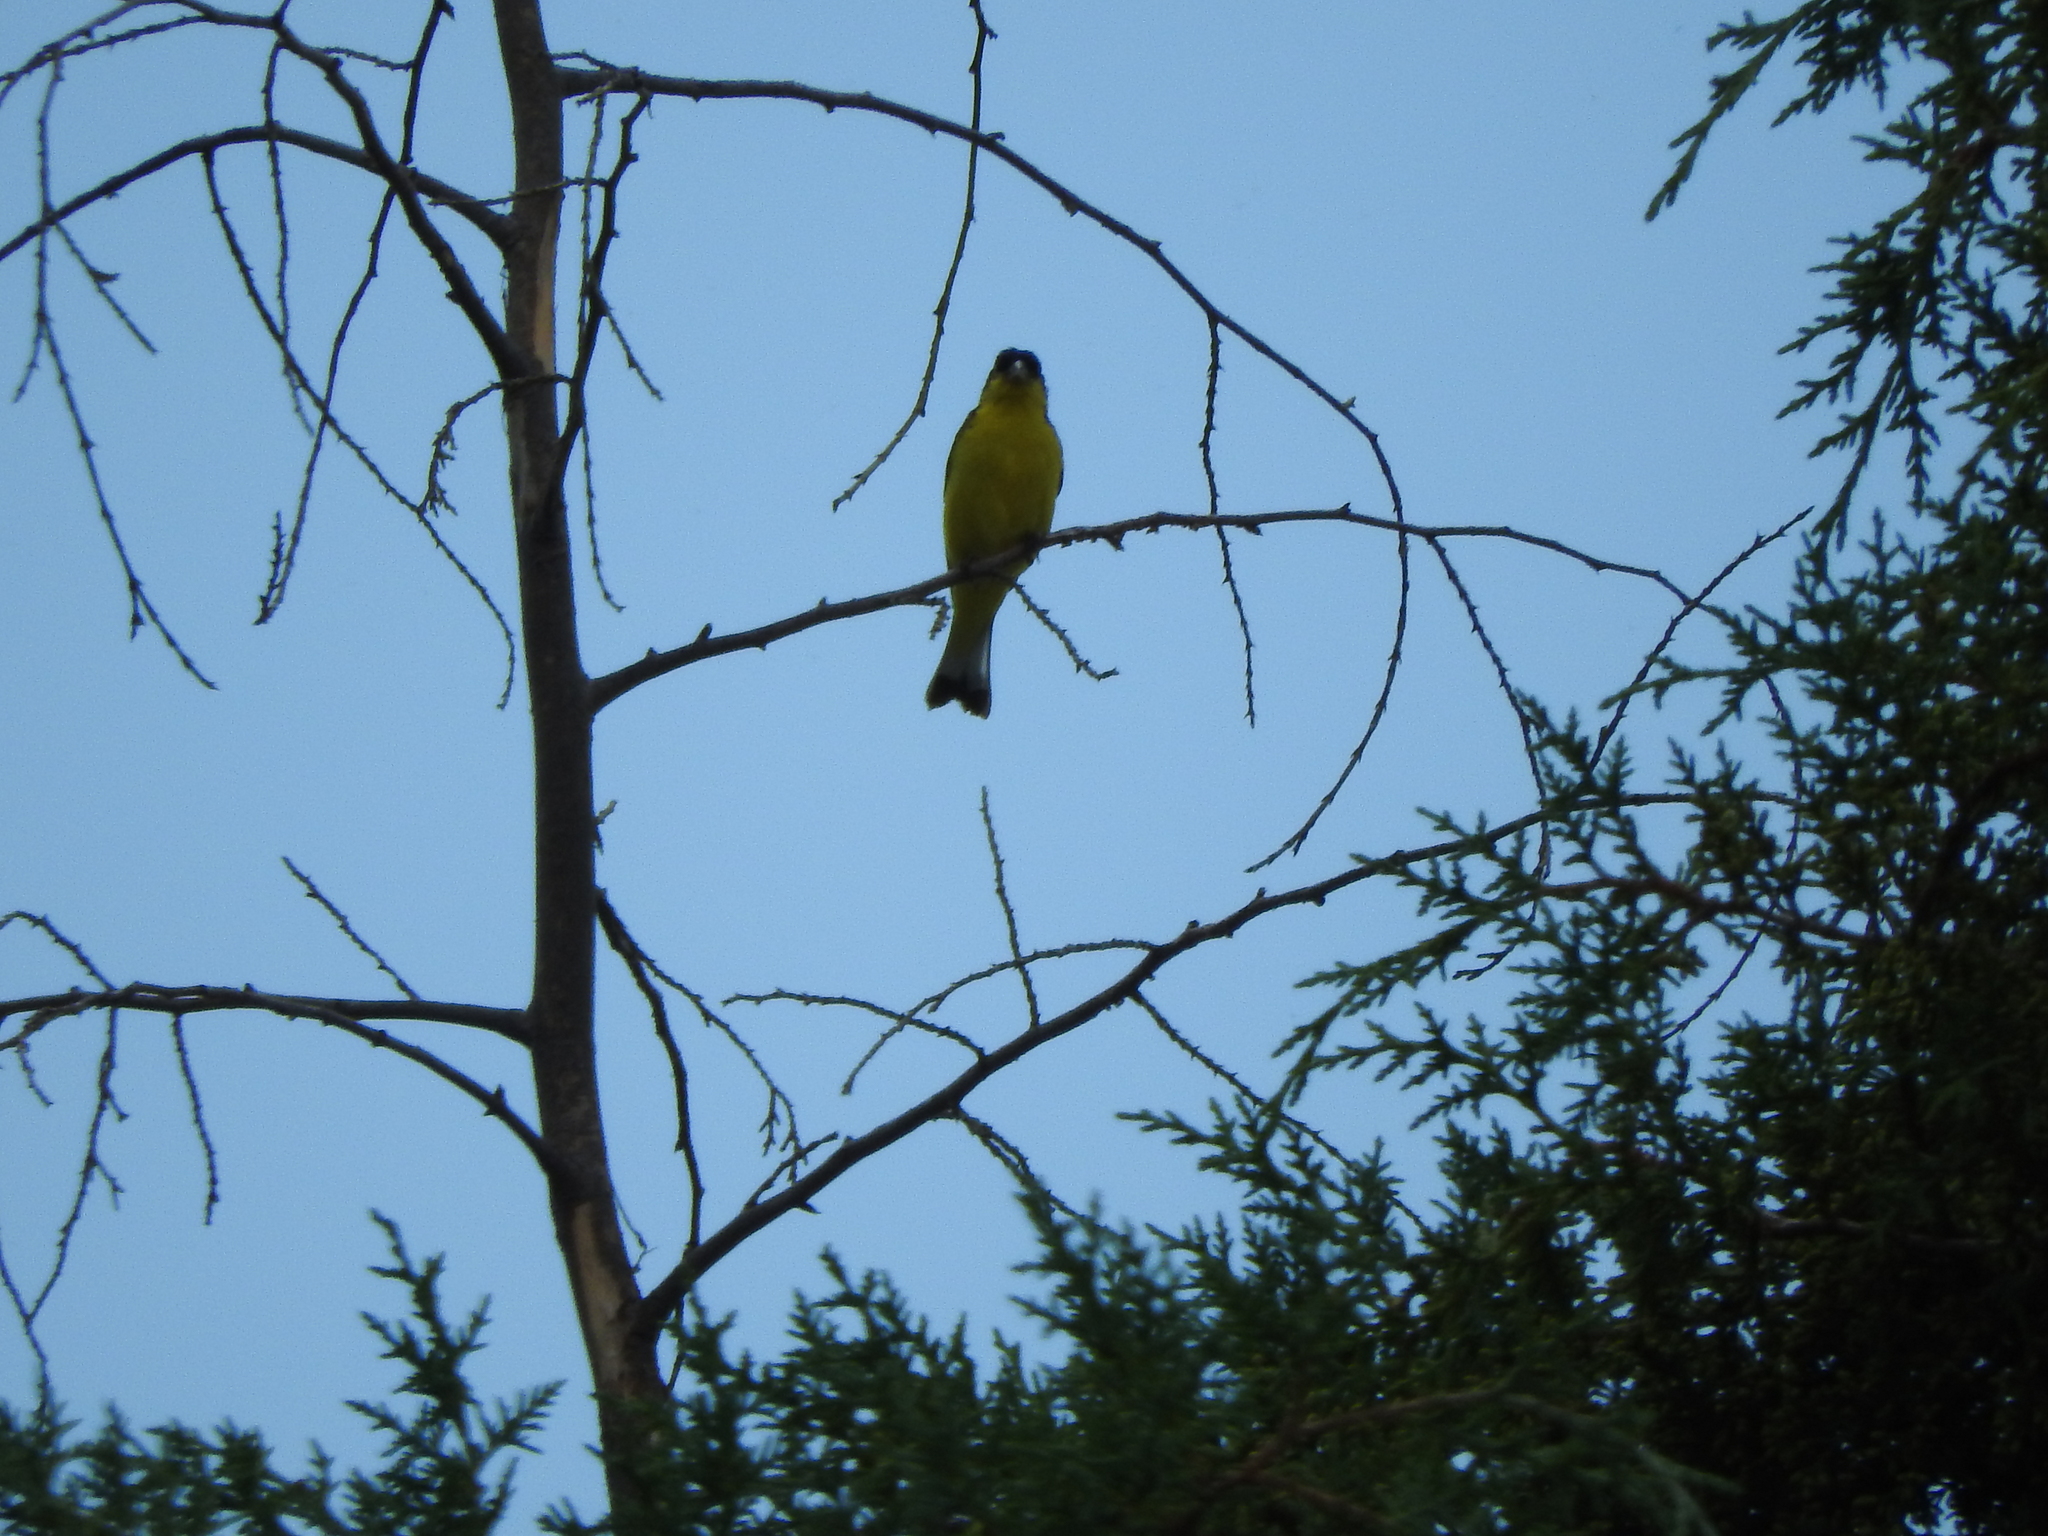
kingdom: Animalia
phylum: Chordata
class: Aves
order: Passeriformes
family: Fringillidae
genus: Spinus
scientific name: Spinus psaltria
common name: Lesser goldfinch
